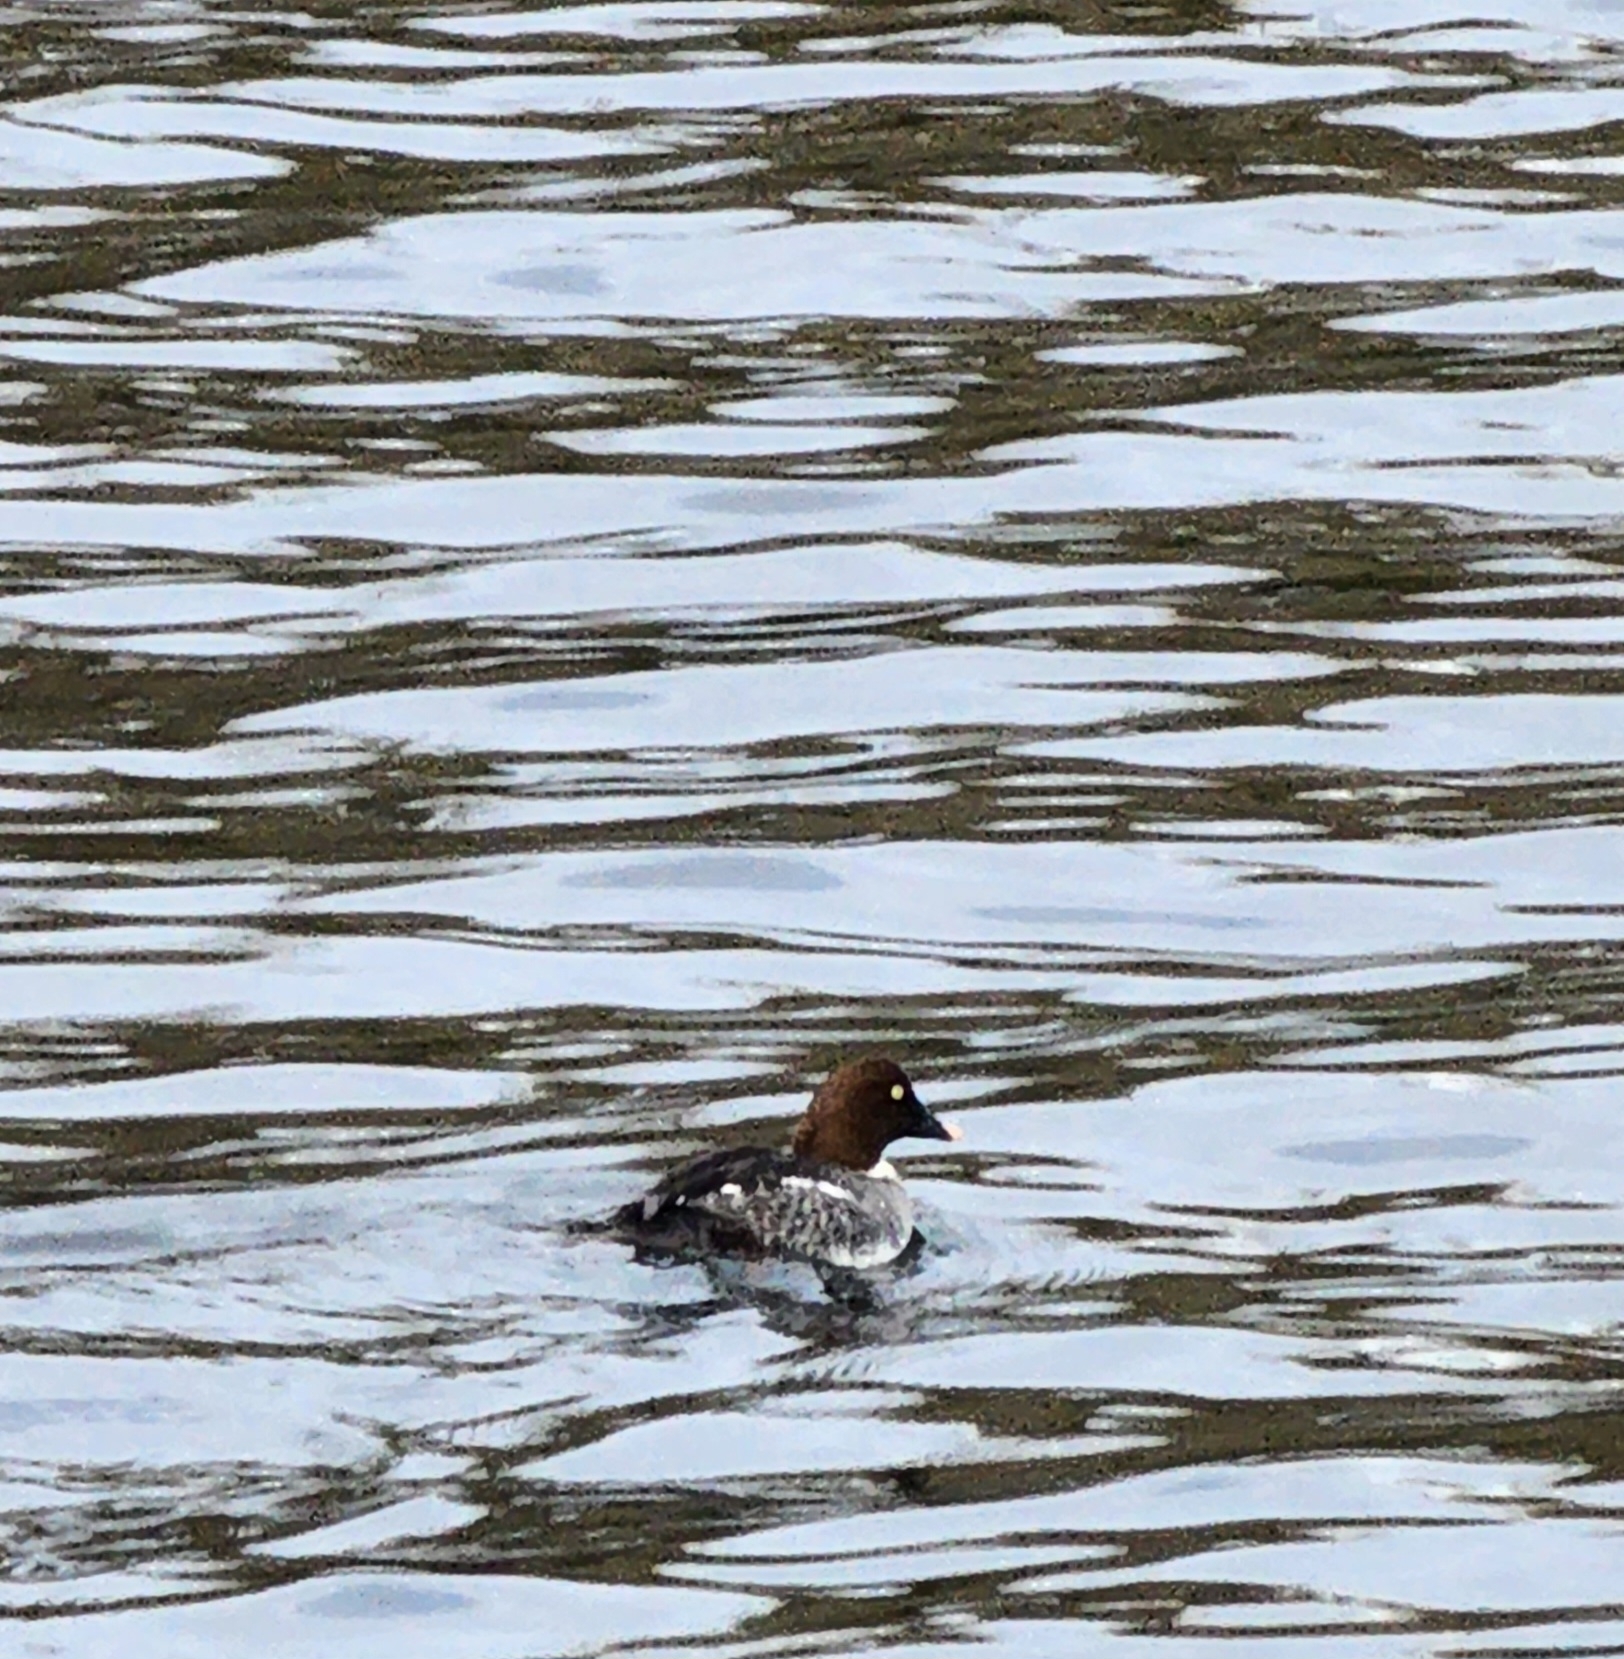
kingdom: Animalia
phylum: Chordata
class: Aves
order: Anseriformes
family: Anatidae
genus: Bucephala
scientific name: Bucephala clangula
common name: Common goldeneye
